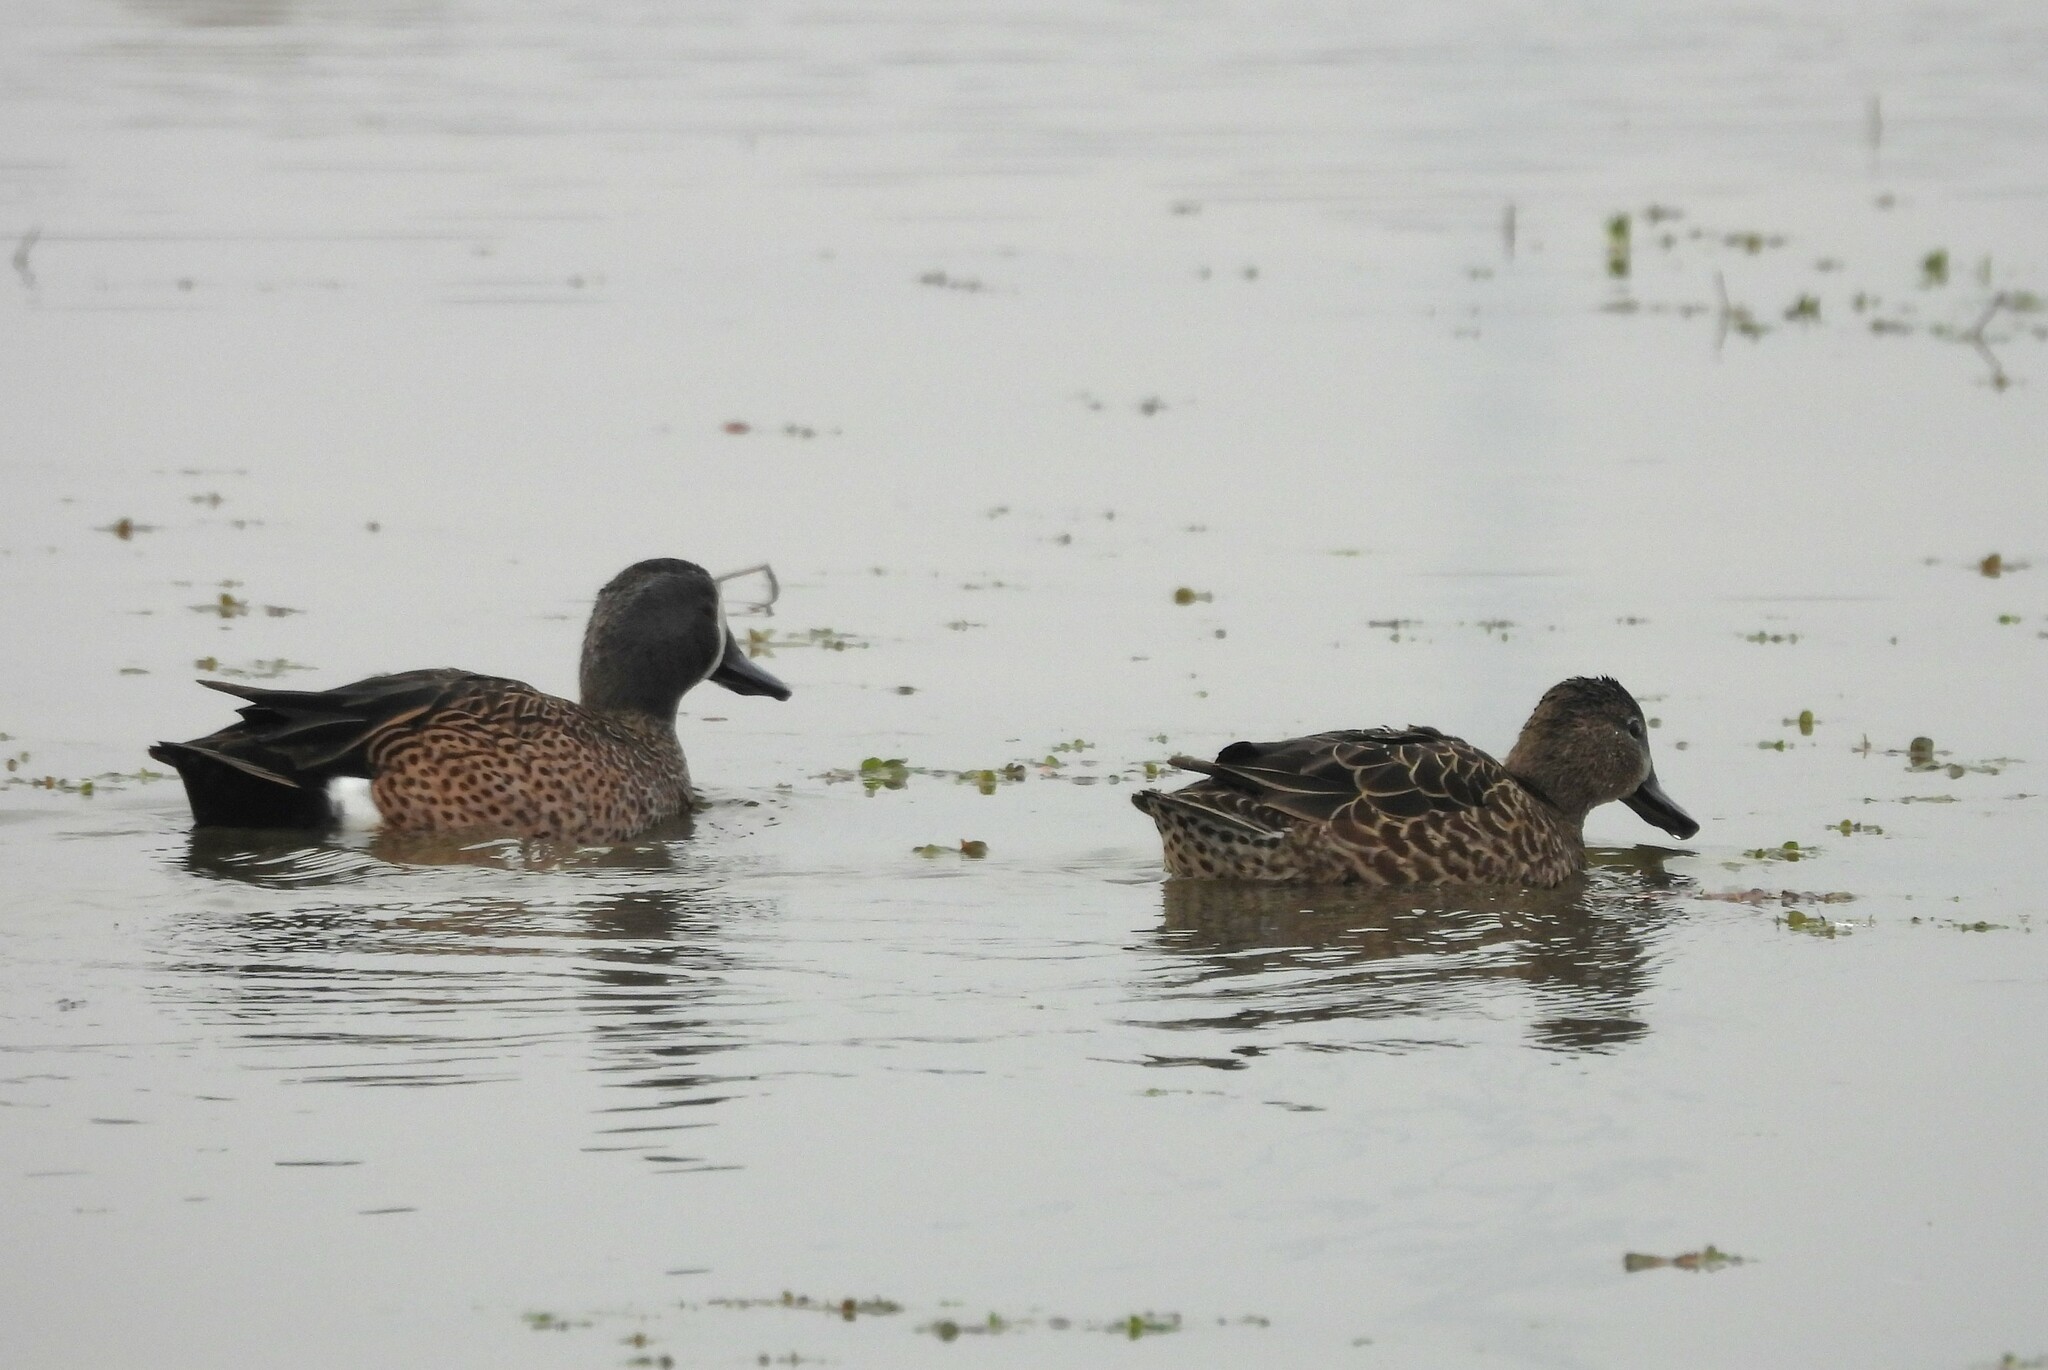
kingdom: Animalia
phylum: Chordata
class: Aves
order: Anseriformes
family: Anatidae
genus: Spatula
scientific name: Spatula discors
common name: Blue-winged teal
